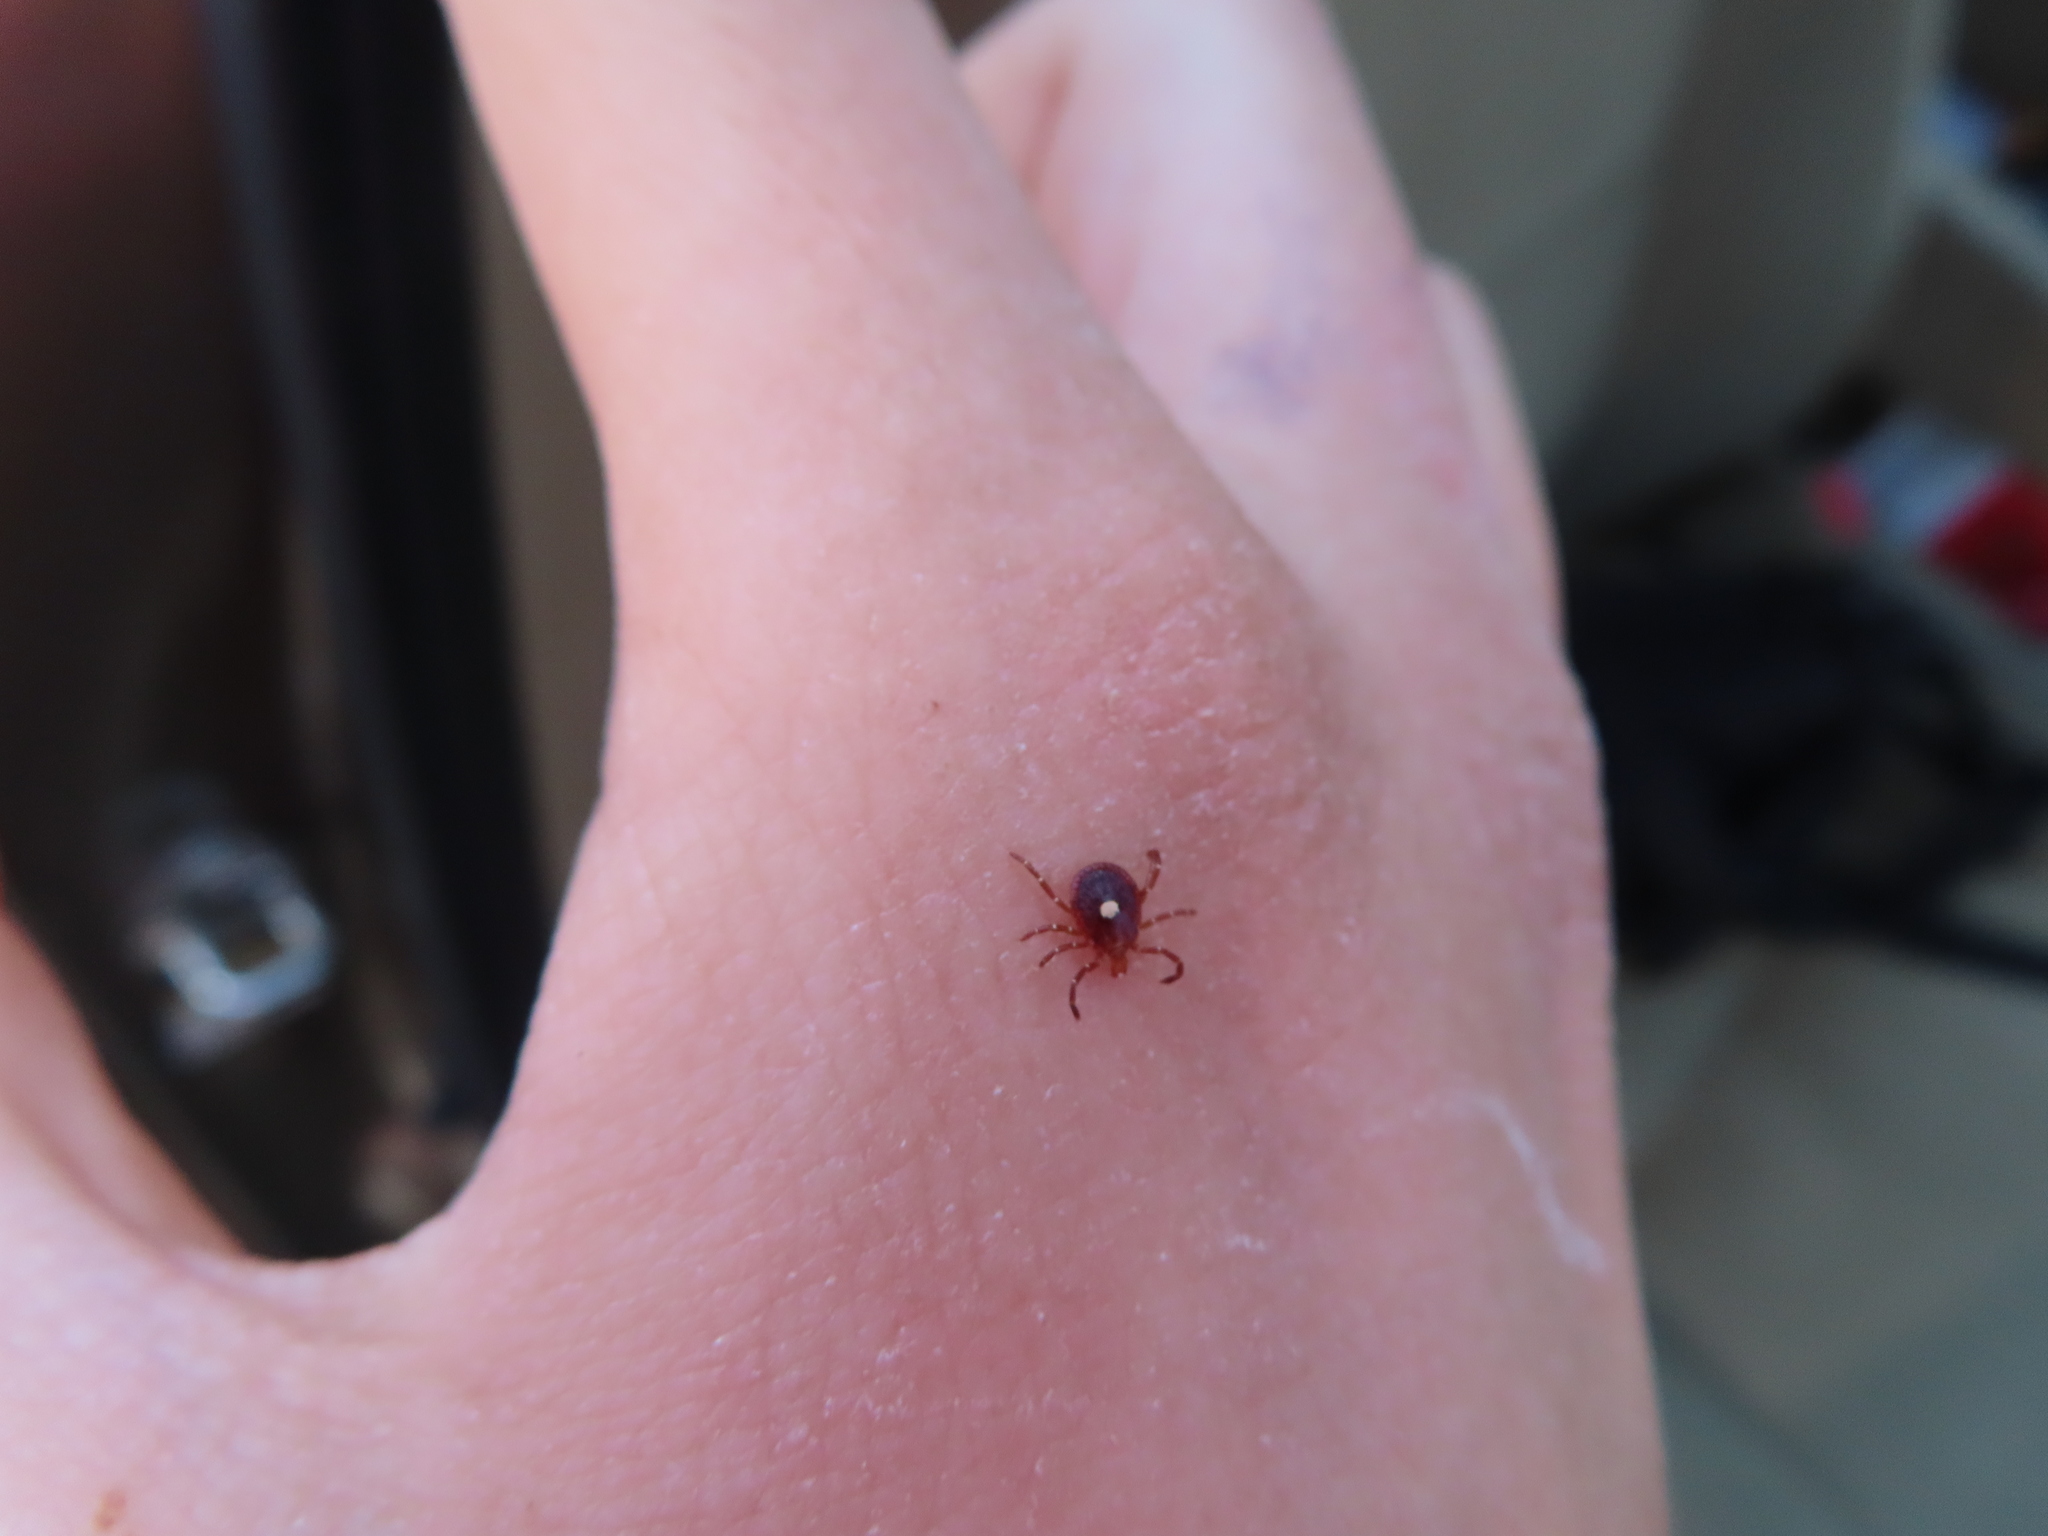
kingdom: Animalia
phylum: Arthropoda
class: Arachnida
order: Ixodida
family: Ixodidae
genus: Amblyomma
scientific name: Amblyomma americanum
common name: Lone star tick
